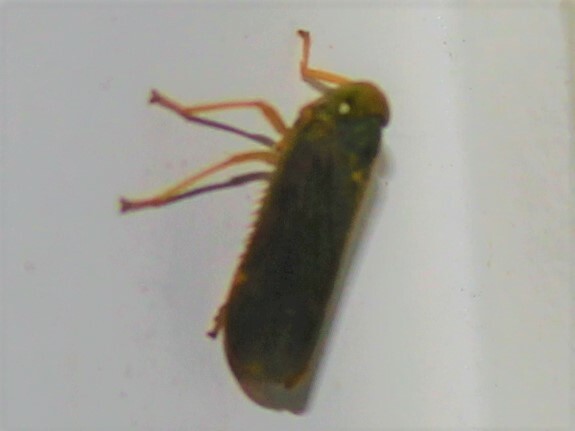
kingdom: Animalia
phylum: Arthropoda
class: Insecta
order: Hemiptera
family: Cicadellidae
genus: Jikradia
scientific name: Jikradia olitoria
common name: Coppery leafhopper
